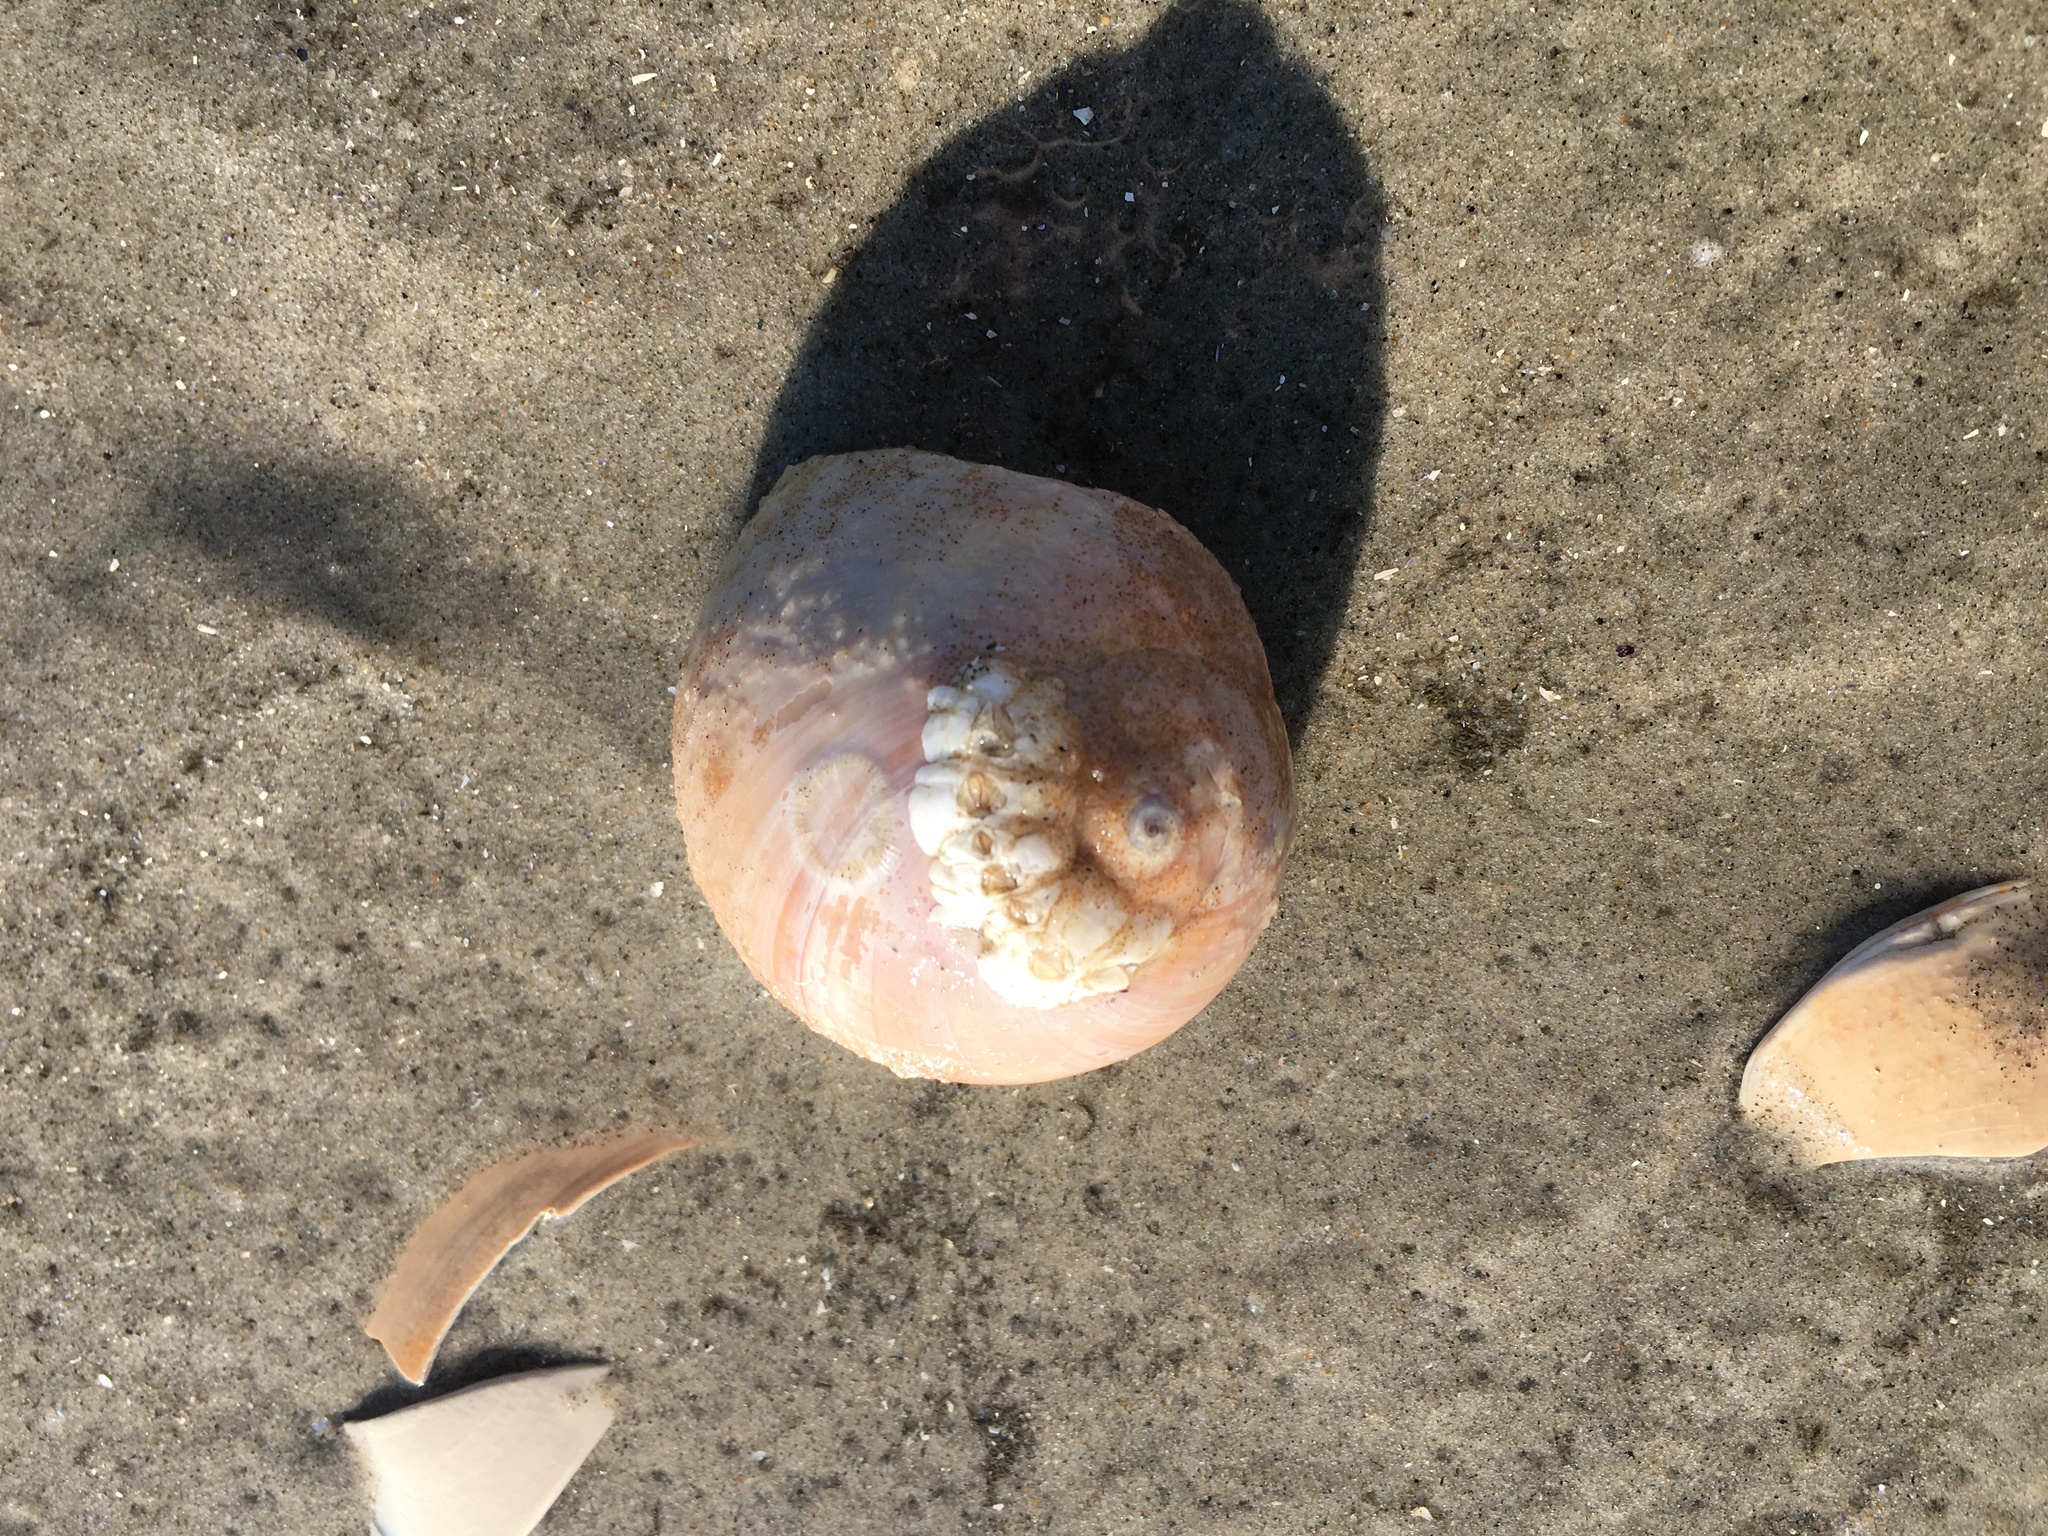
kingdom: Animalia
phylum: Arthropoda
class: Malacostraca
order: Decapoda
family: Paguridae
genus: Pagurus
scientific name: Pagurus pollicaris
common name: Flatclaw hermit
